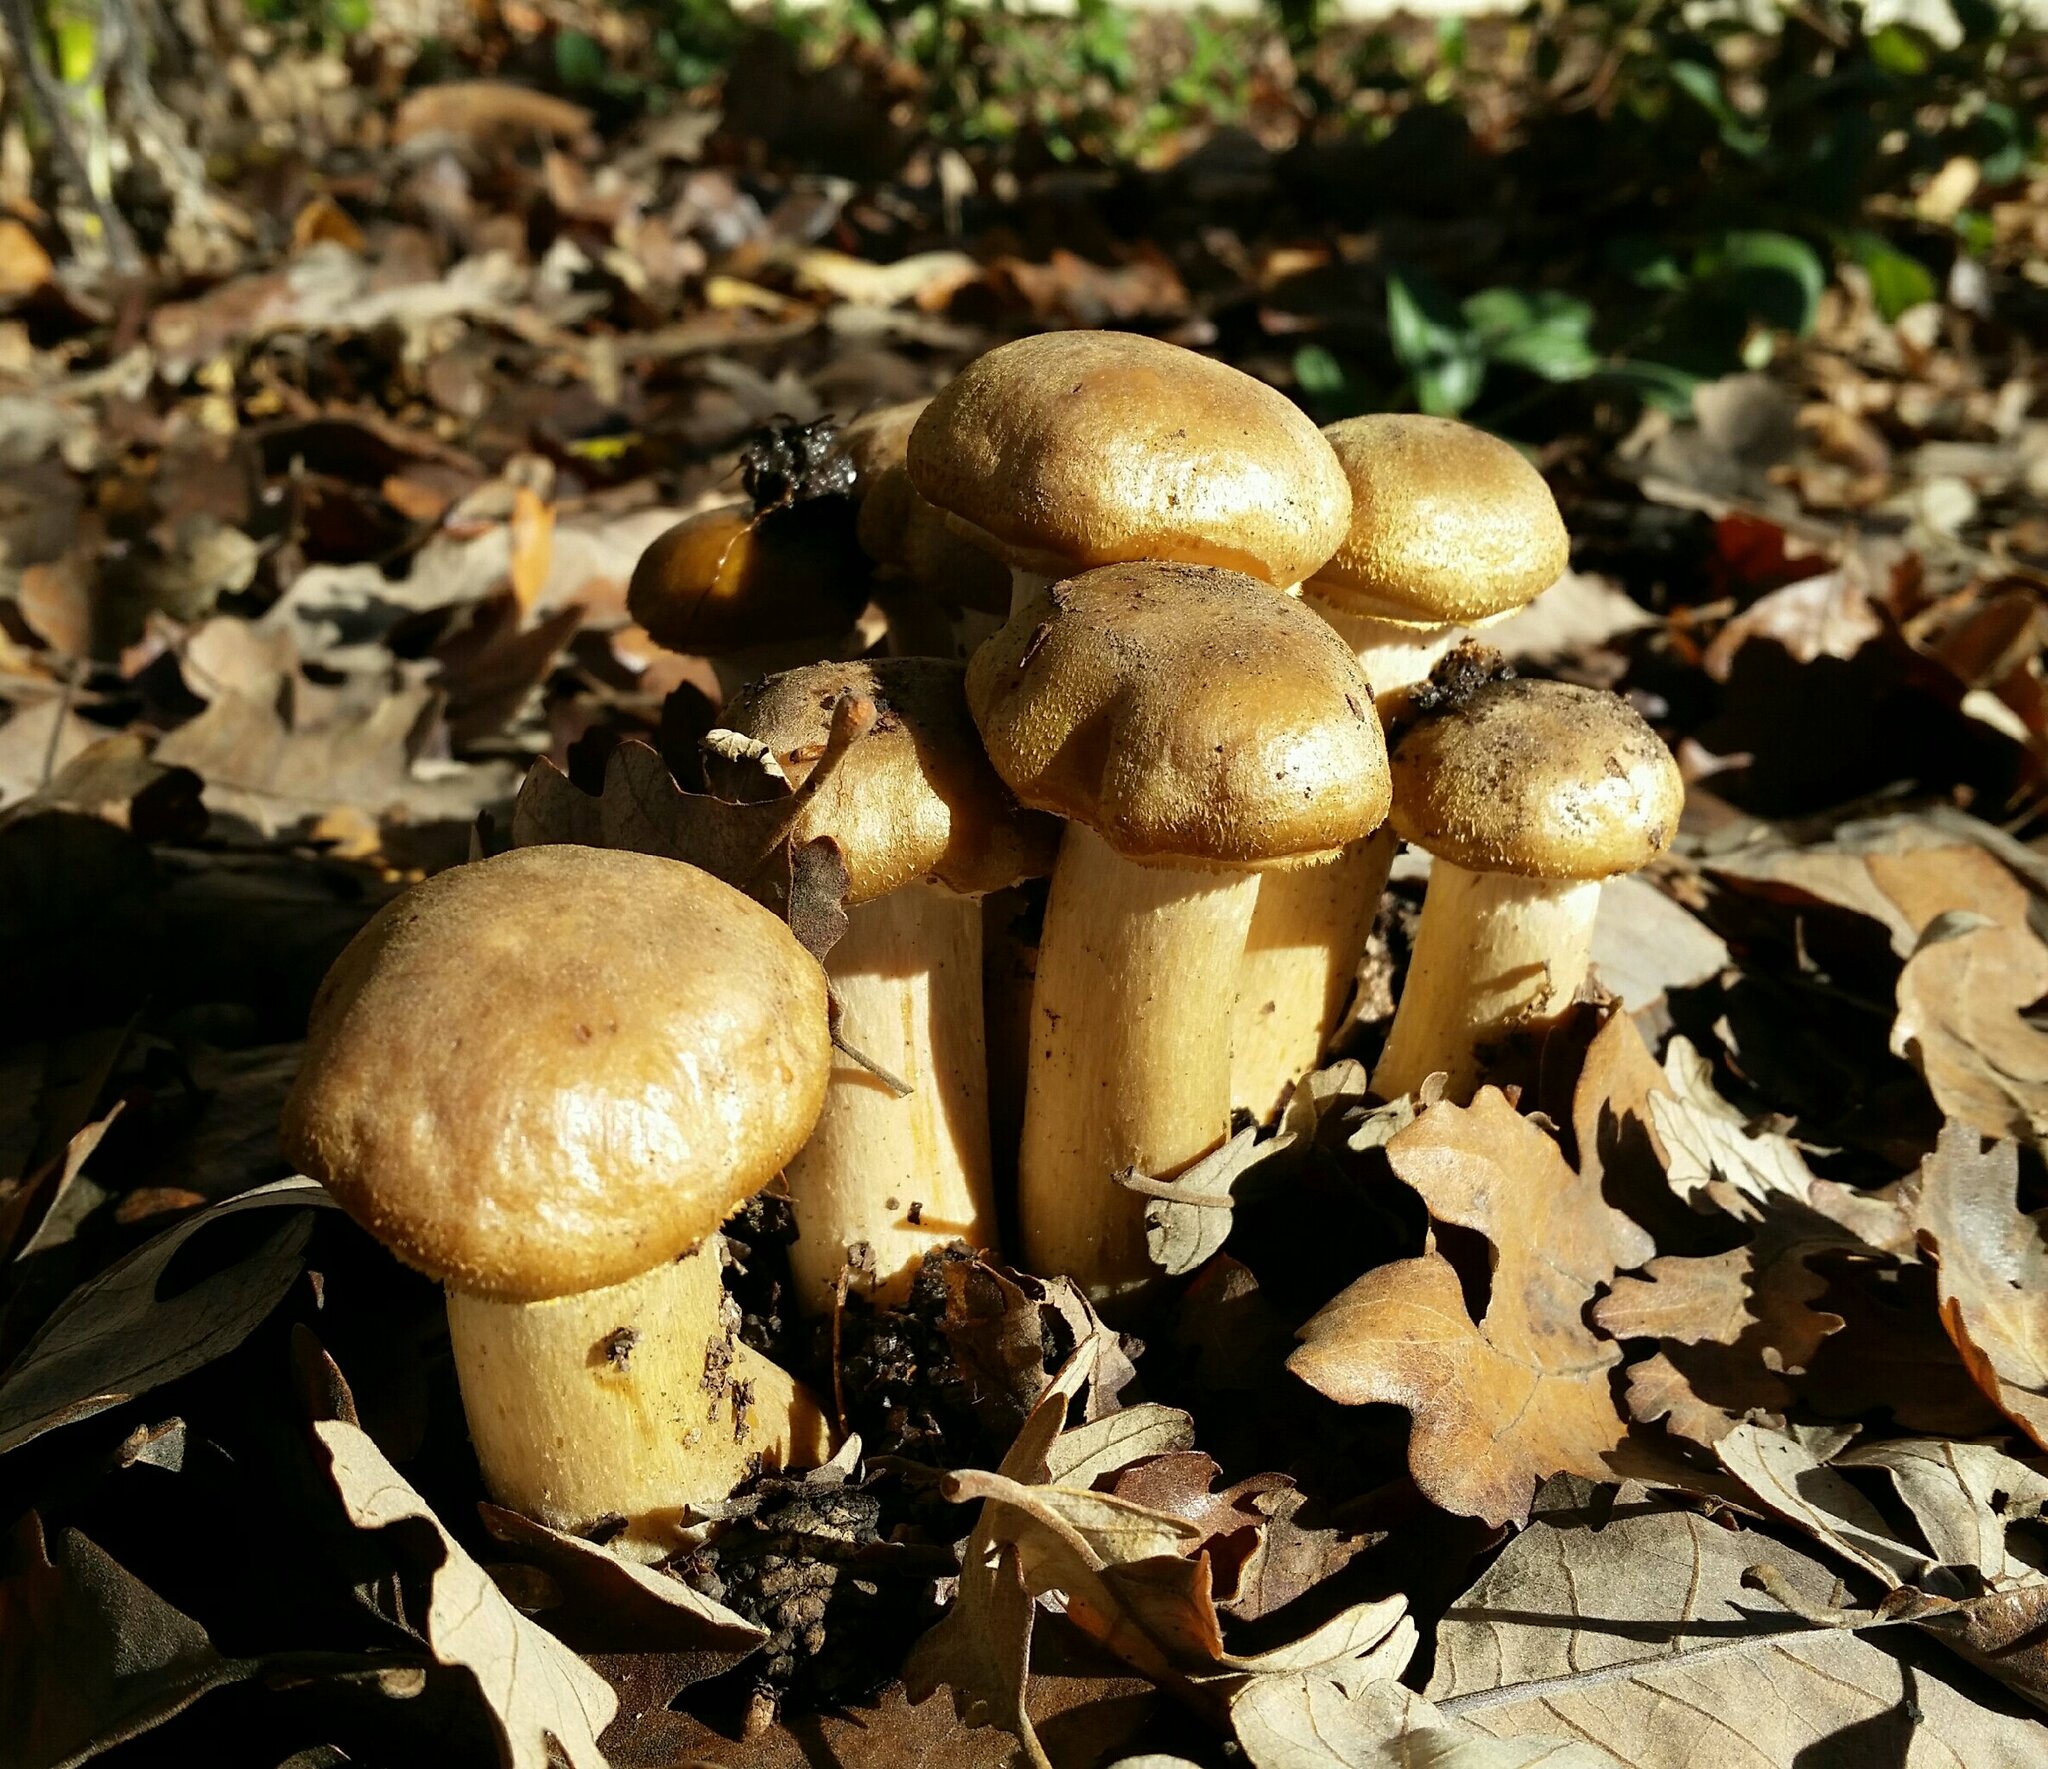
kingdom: Fungi
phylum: Basidiomycota
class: Agaricomycetes
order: Agaricales
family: Physalacriaceae
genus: Armillaria
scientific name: Armillaria mellea
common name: Honey fungus
